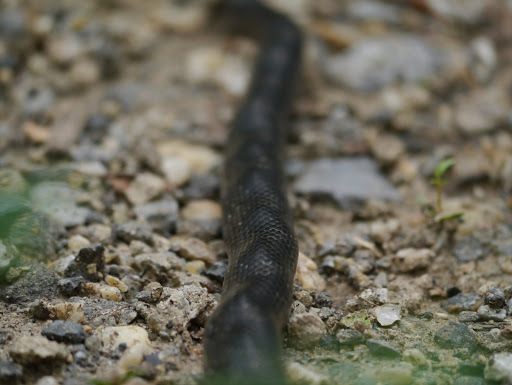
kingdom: Animalia
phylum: Chordata
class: Squamata
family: Colubridae
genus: Pantherophis
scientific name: Pantherophis alleghaniensis
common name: Eastern rat snake
